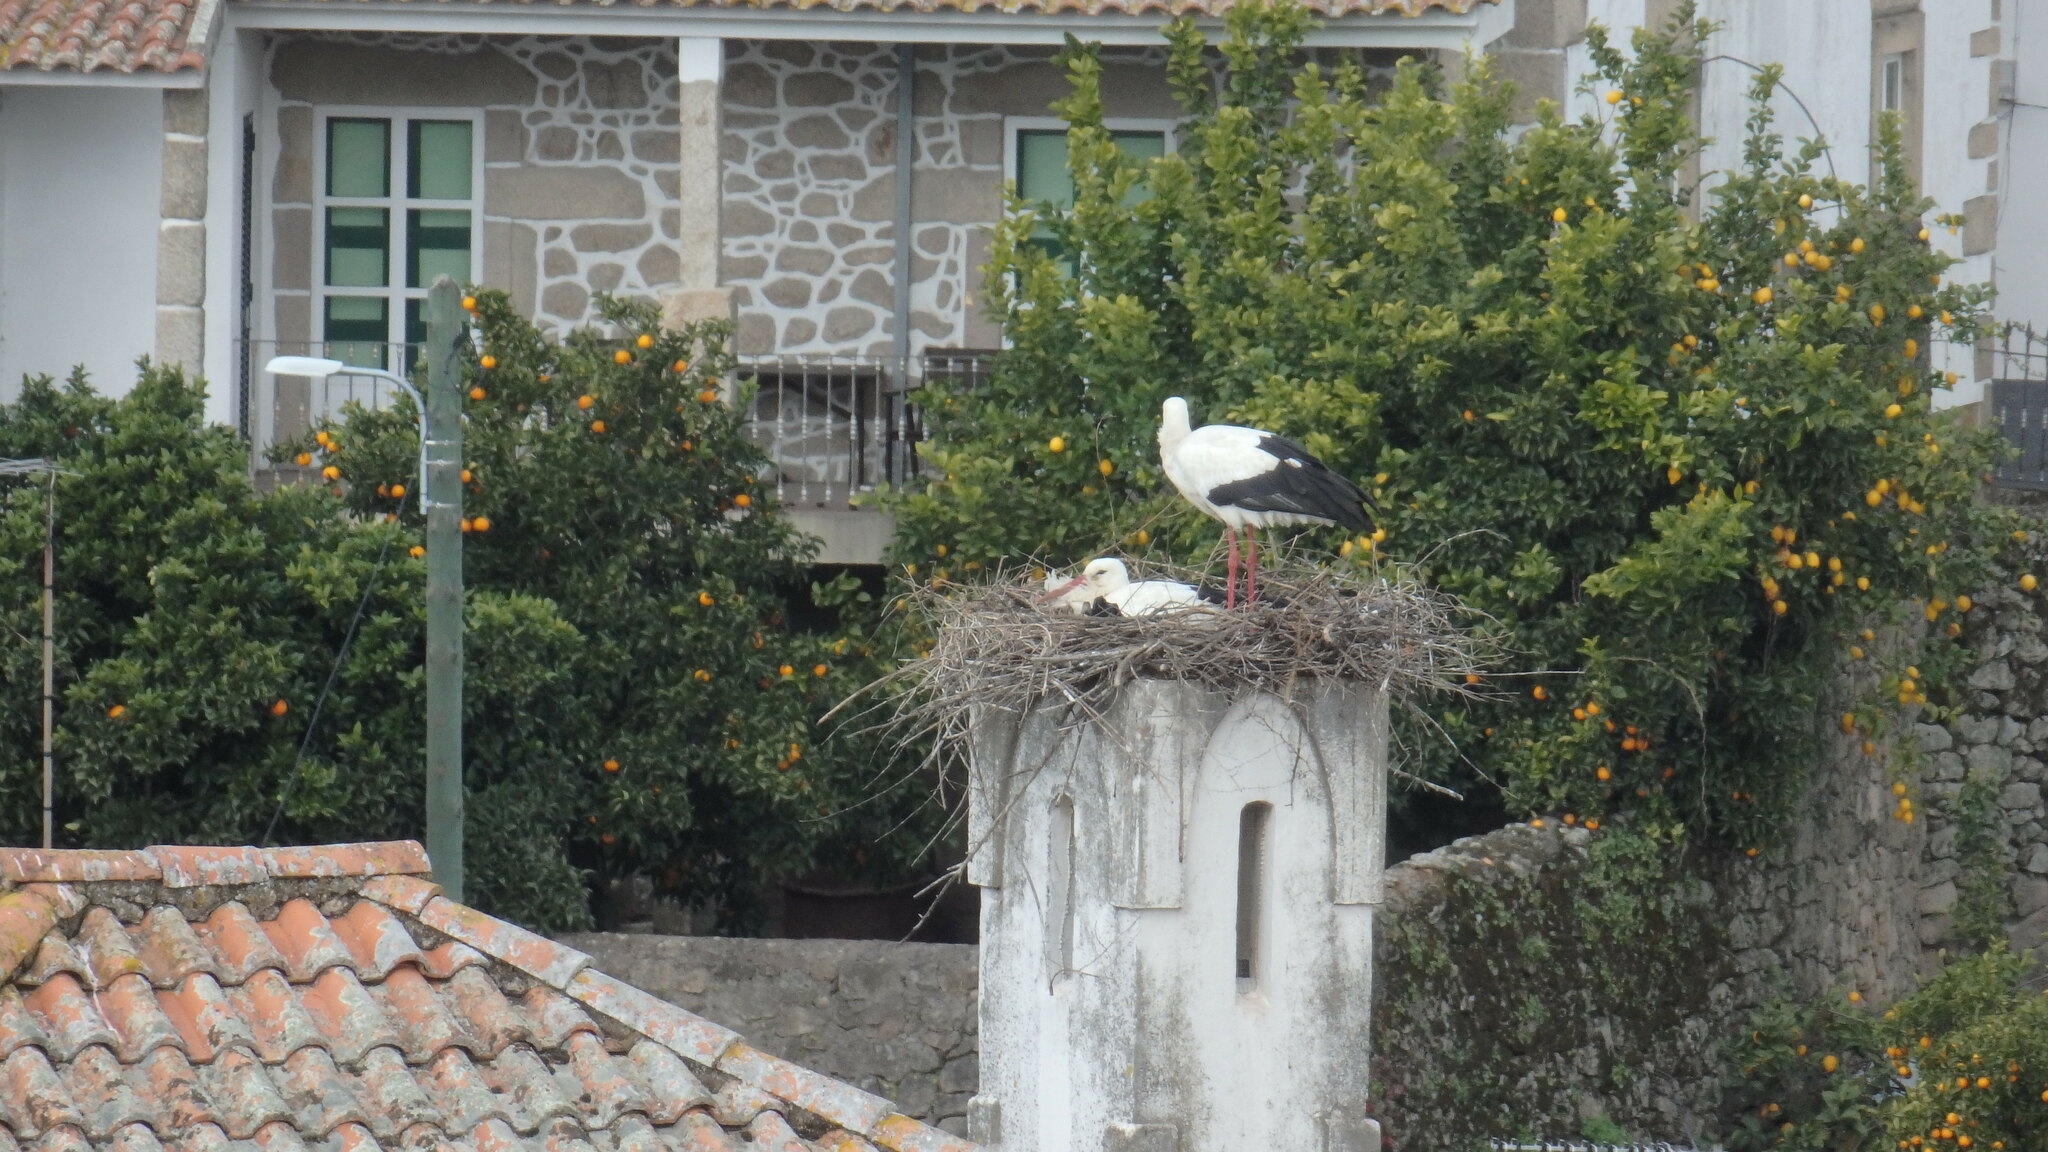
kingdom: Animalia
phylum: Chordata
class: Aves
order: Ciconiiformes
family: Ciconiidae
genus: Ciconia
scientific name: Ciconia ciconia
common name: White stork
